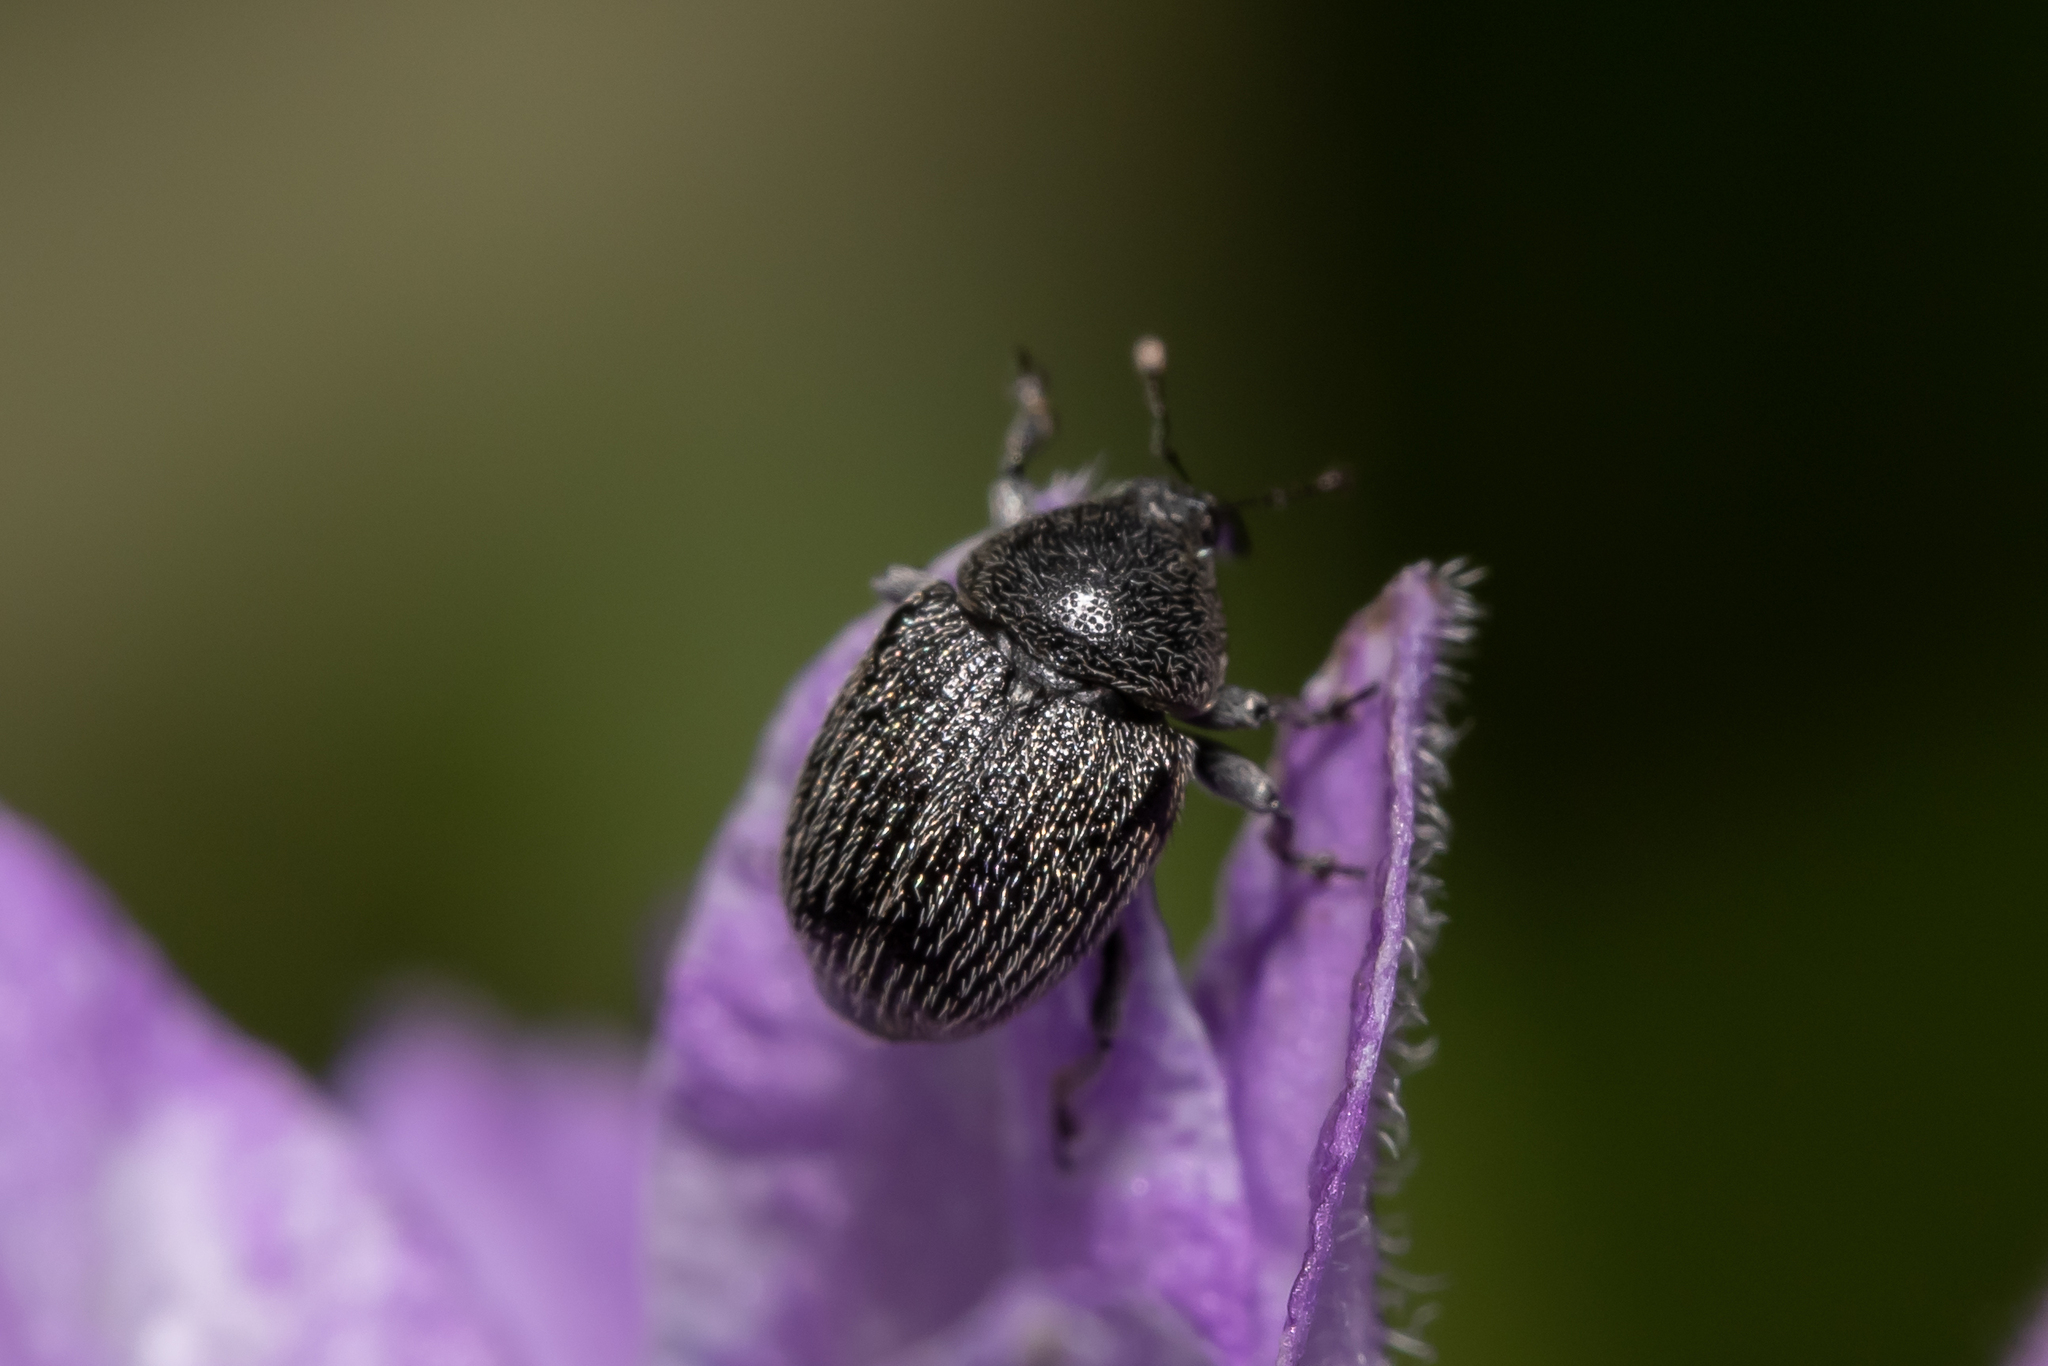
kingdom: Animalia
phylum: Arthropoda
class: Insecta
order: Coleoptera
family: Curculionidae
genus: Gymnetron
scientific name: Gymnetron distinctus
